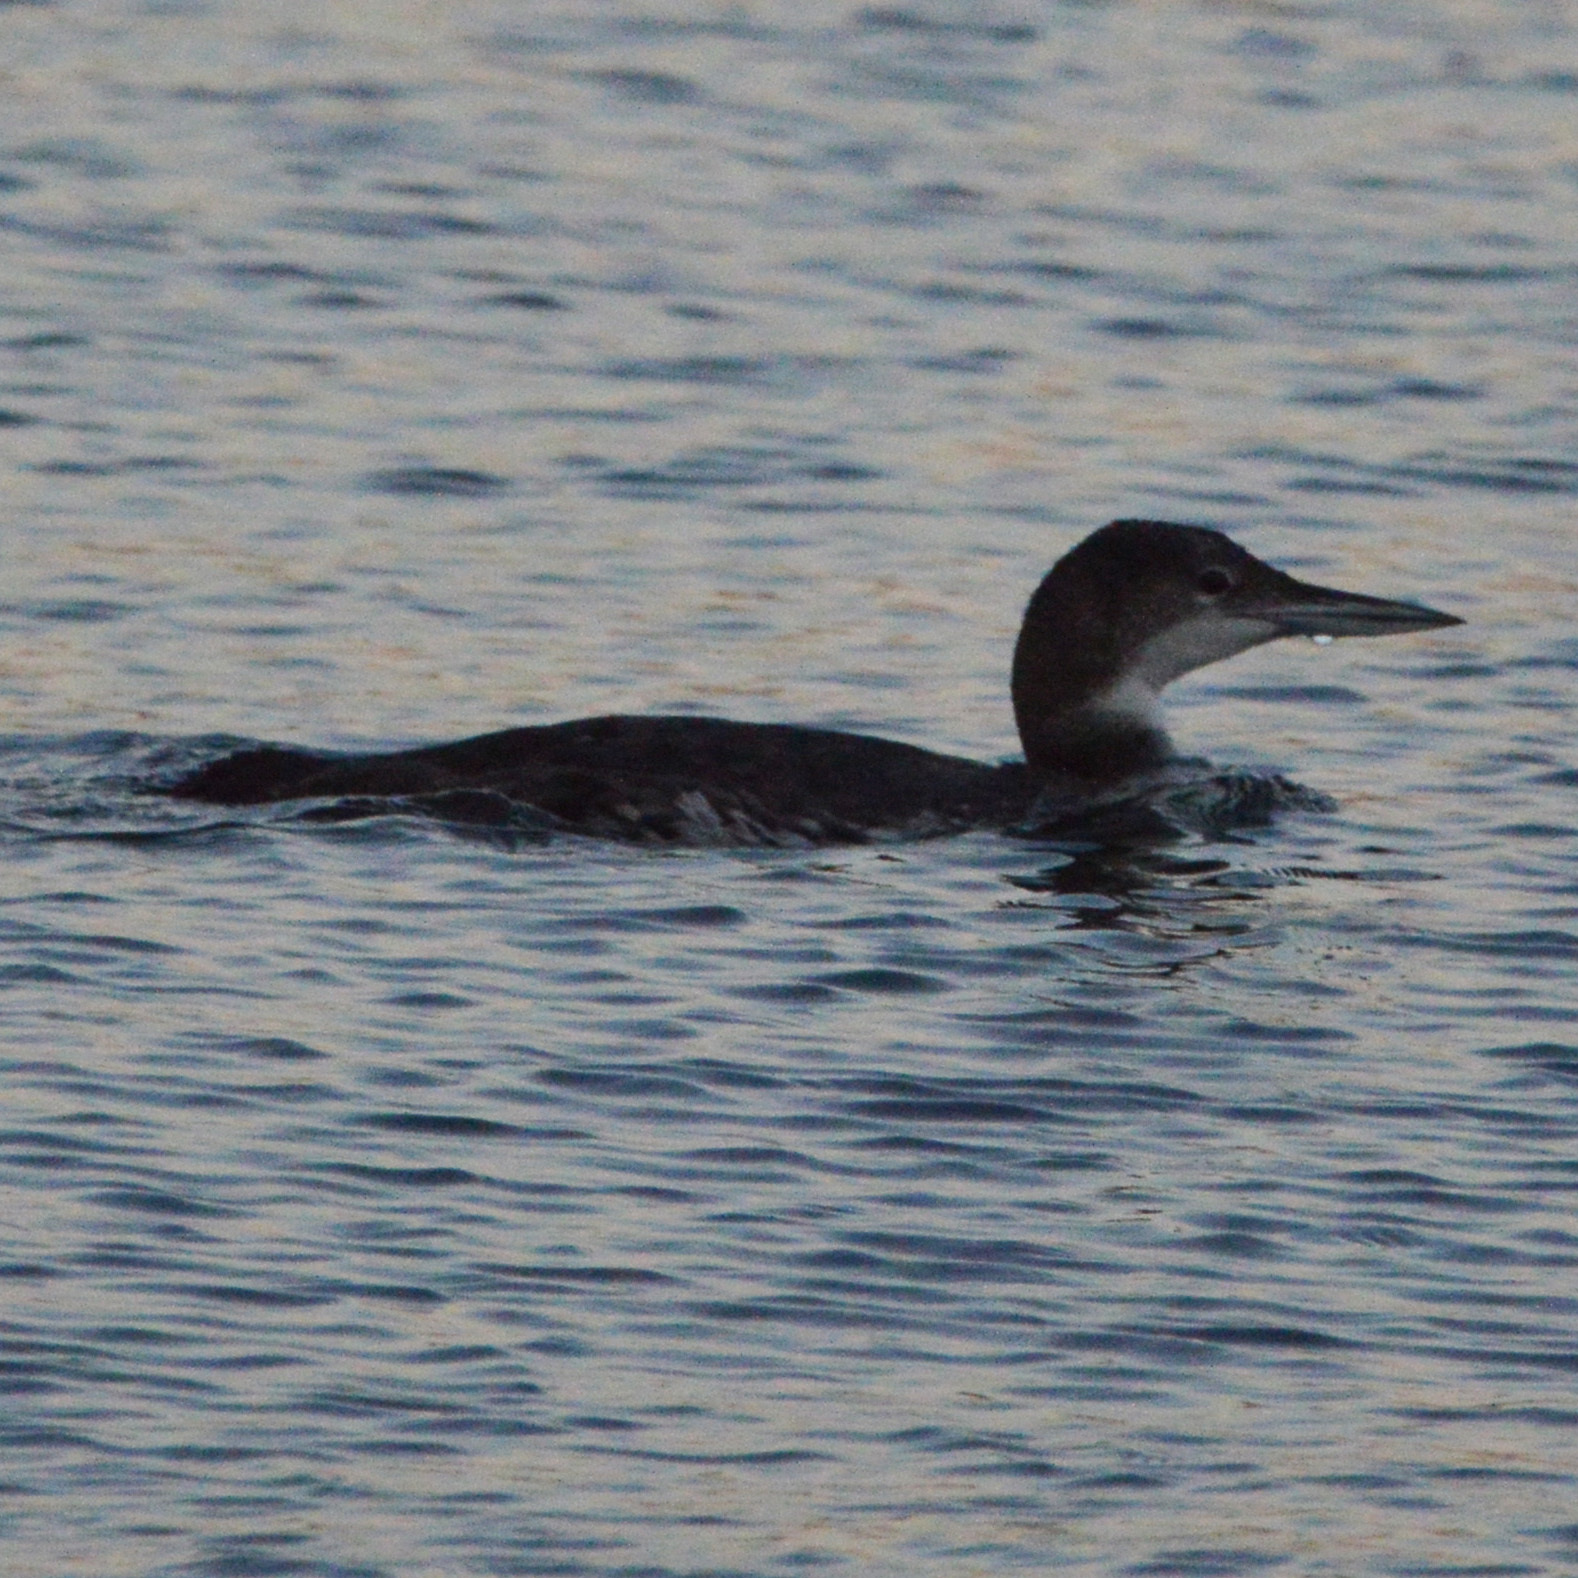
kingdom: Animalia
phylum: Chordata
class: Aves
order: Gaviiformes
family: Gaviidae
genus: Gavia
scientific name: Gavia immer
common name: Common loon
